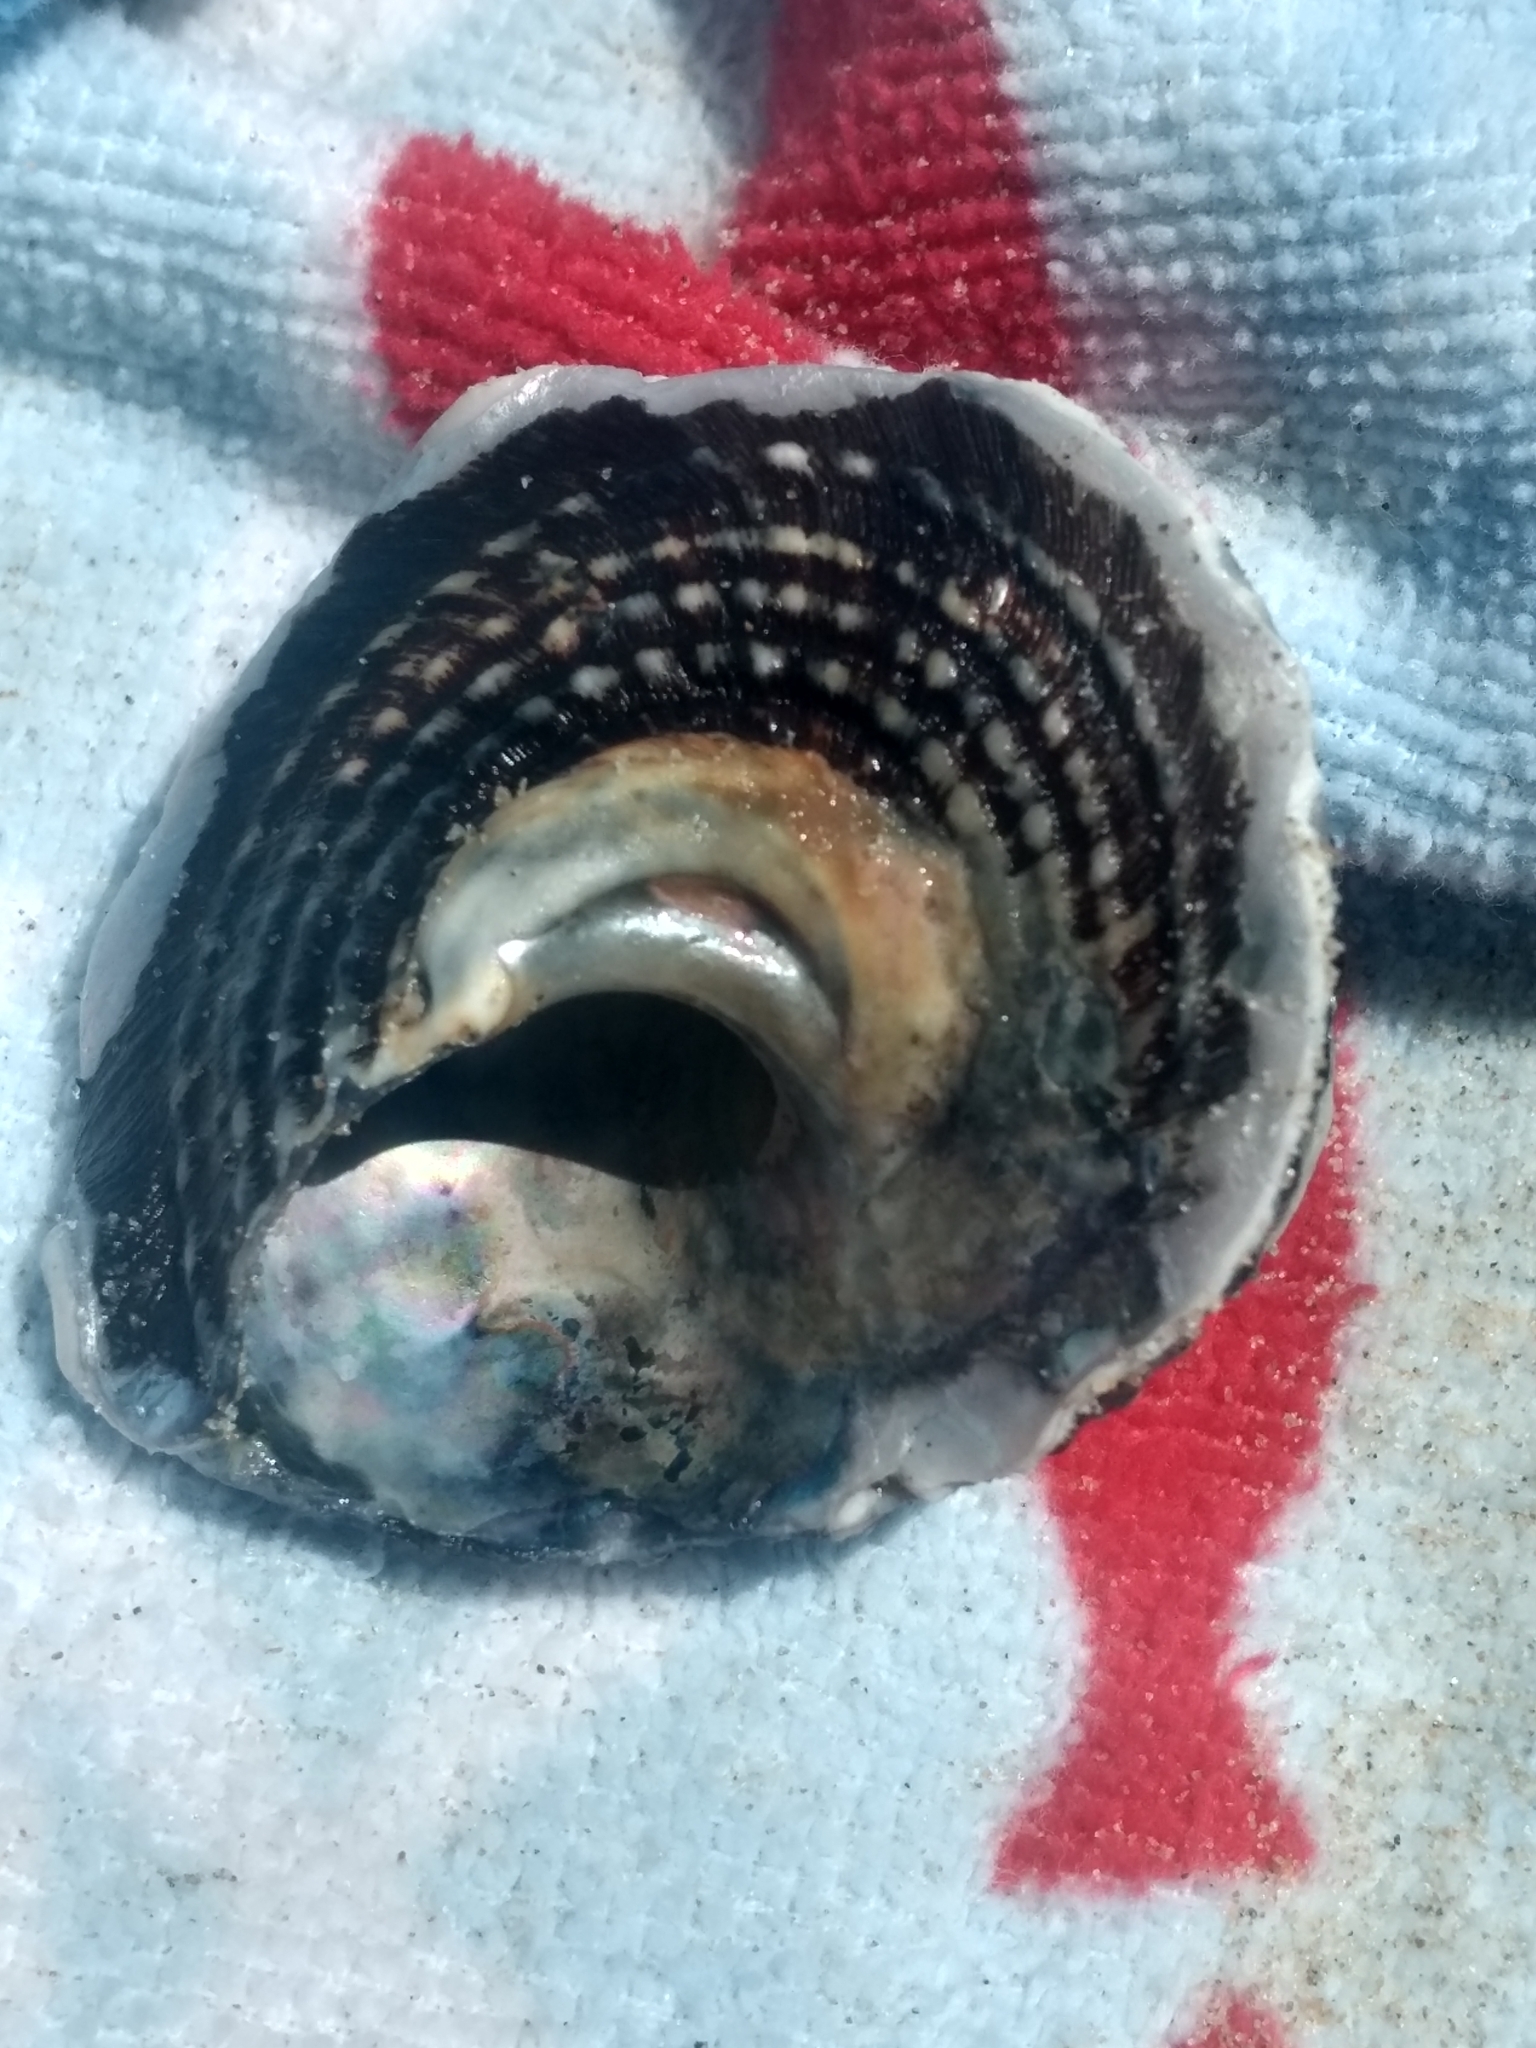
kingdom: Animalia
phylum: Mollusca
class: Gastropoda
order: Trochida
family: Turbinidae
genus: Megastraea
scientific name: Megastraea undosa
